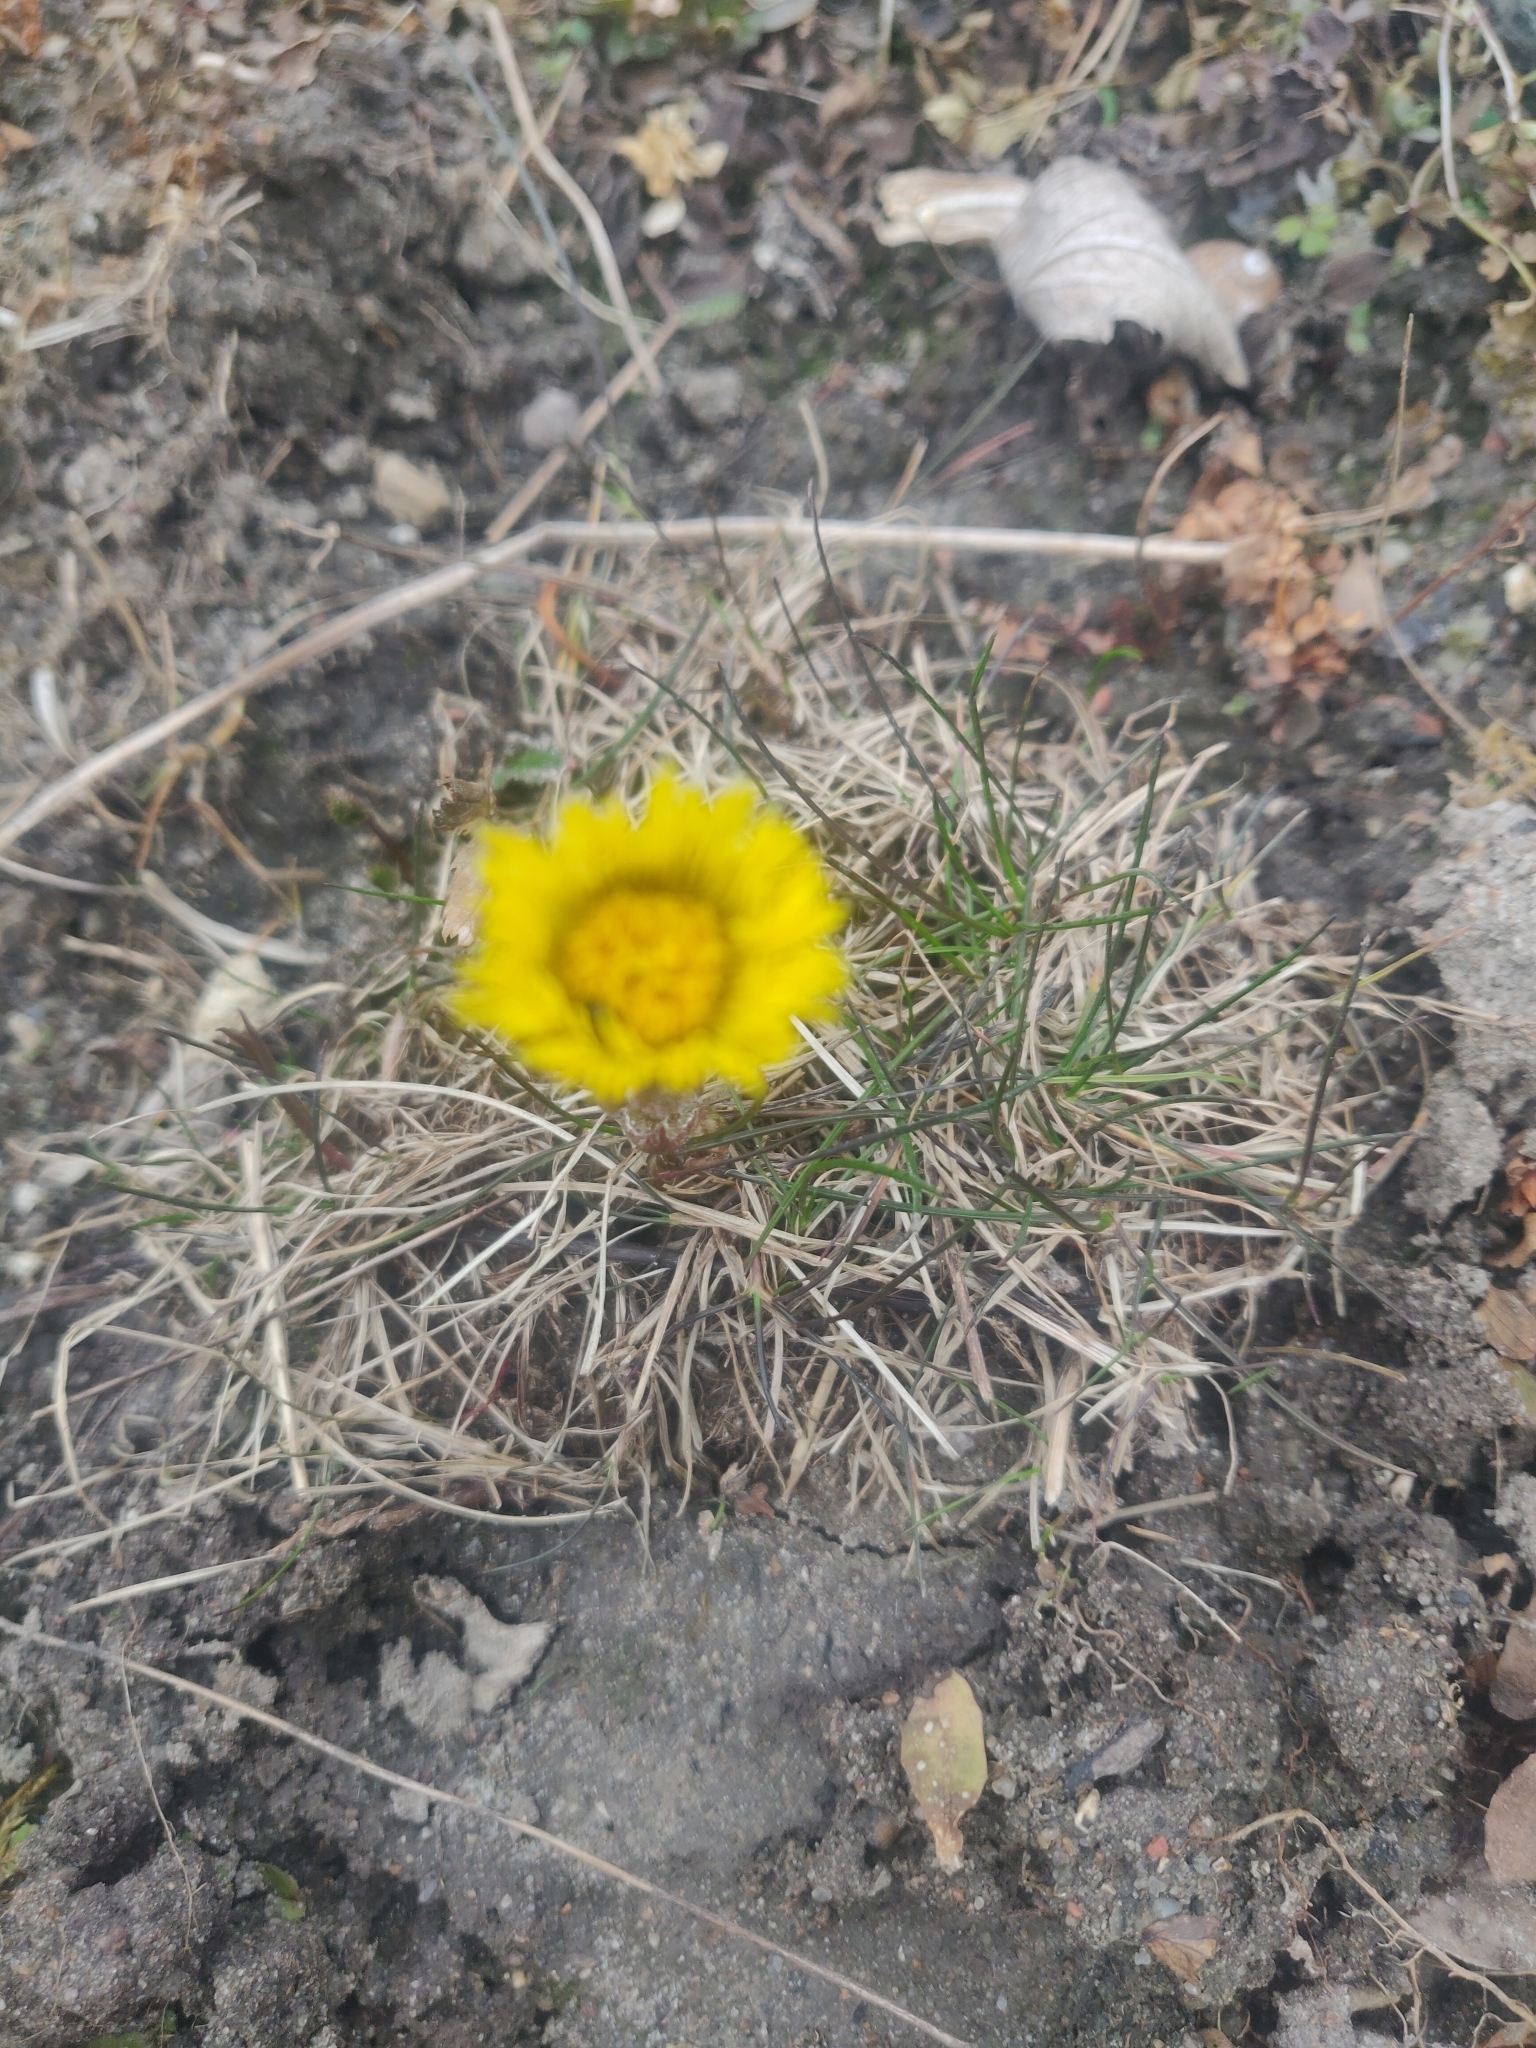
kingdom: Plantae
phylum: Tracheophyta
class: Magnoliopsida
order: Asterales
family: Asteraceae
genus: Tussilago
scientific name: Tussilago farfara
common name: Coltsfoot
